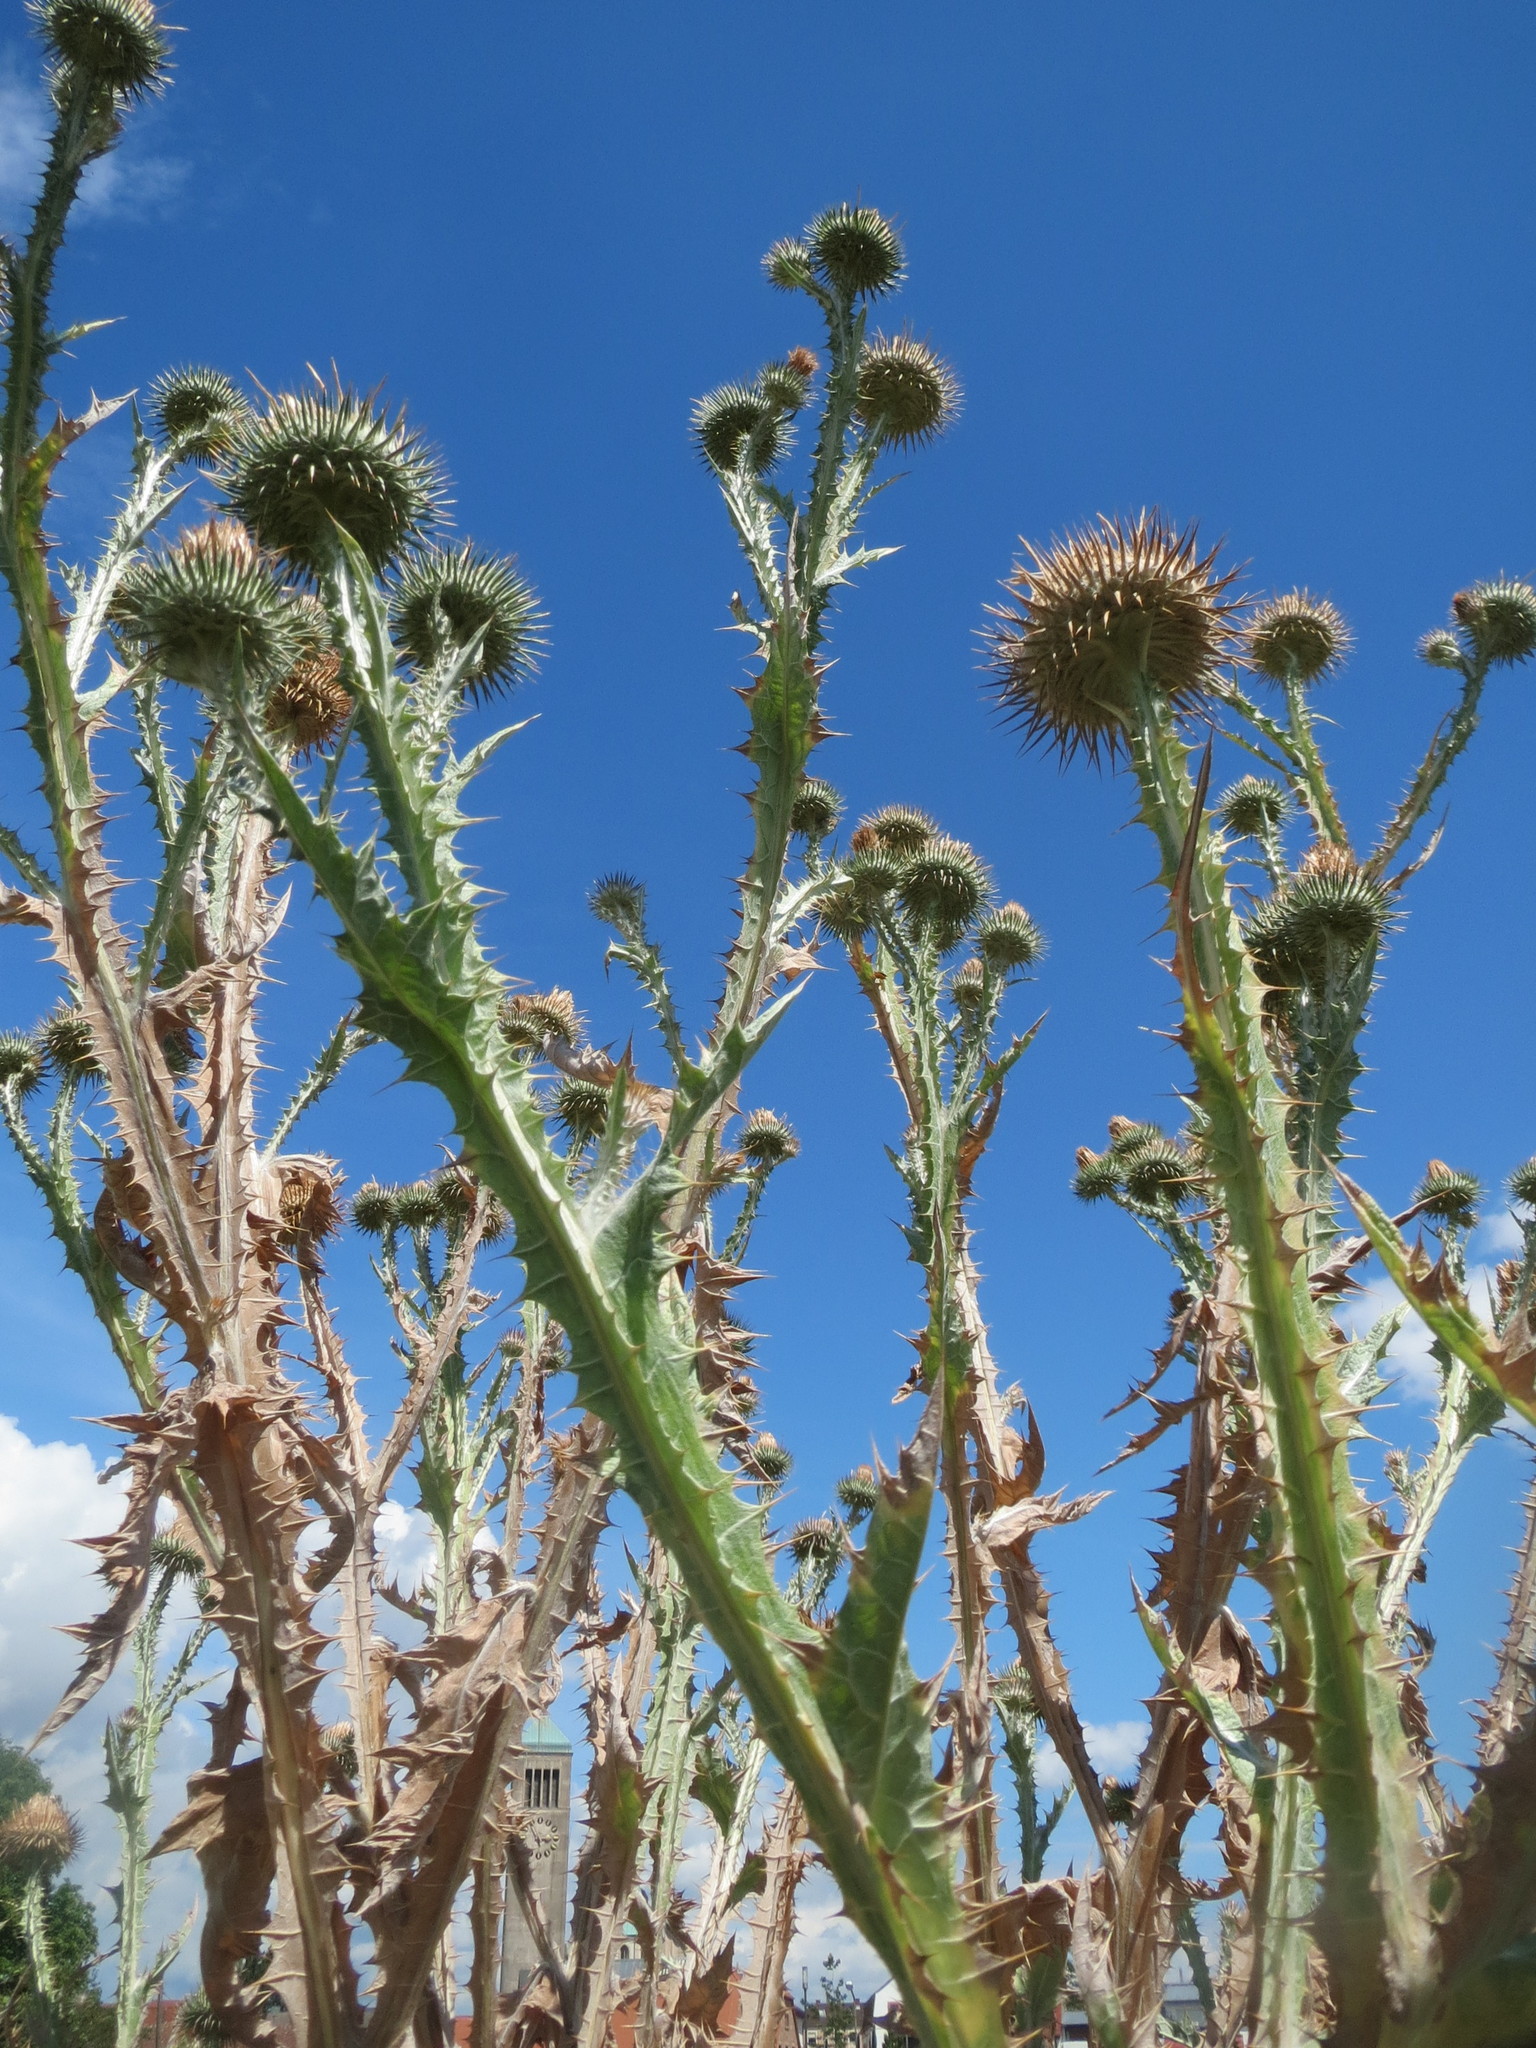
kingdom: Plantae
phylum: Tracheophyta
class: Magnoliopsida
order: Asterales
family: Asteraceae
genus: Onopordum
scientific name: Onopordum acanthium
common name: Scotch thistle
